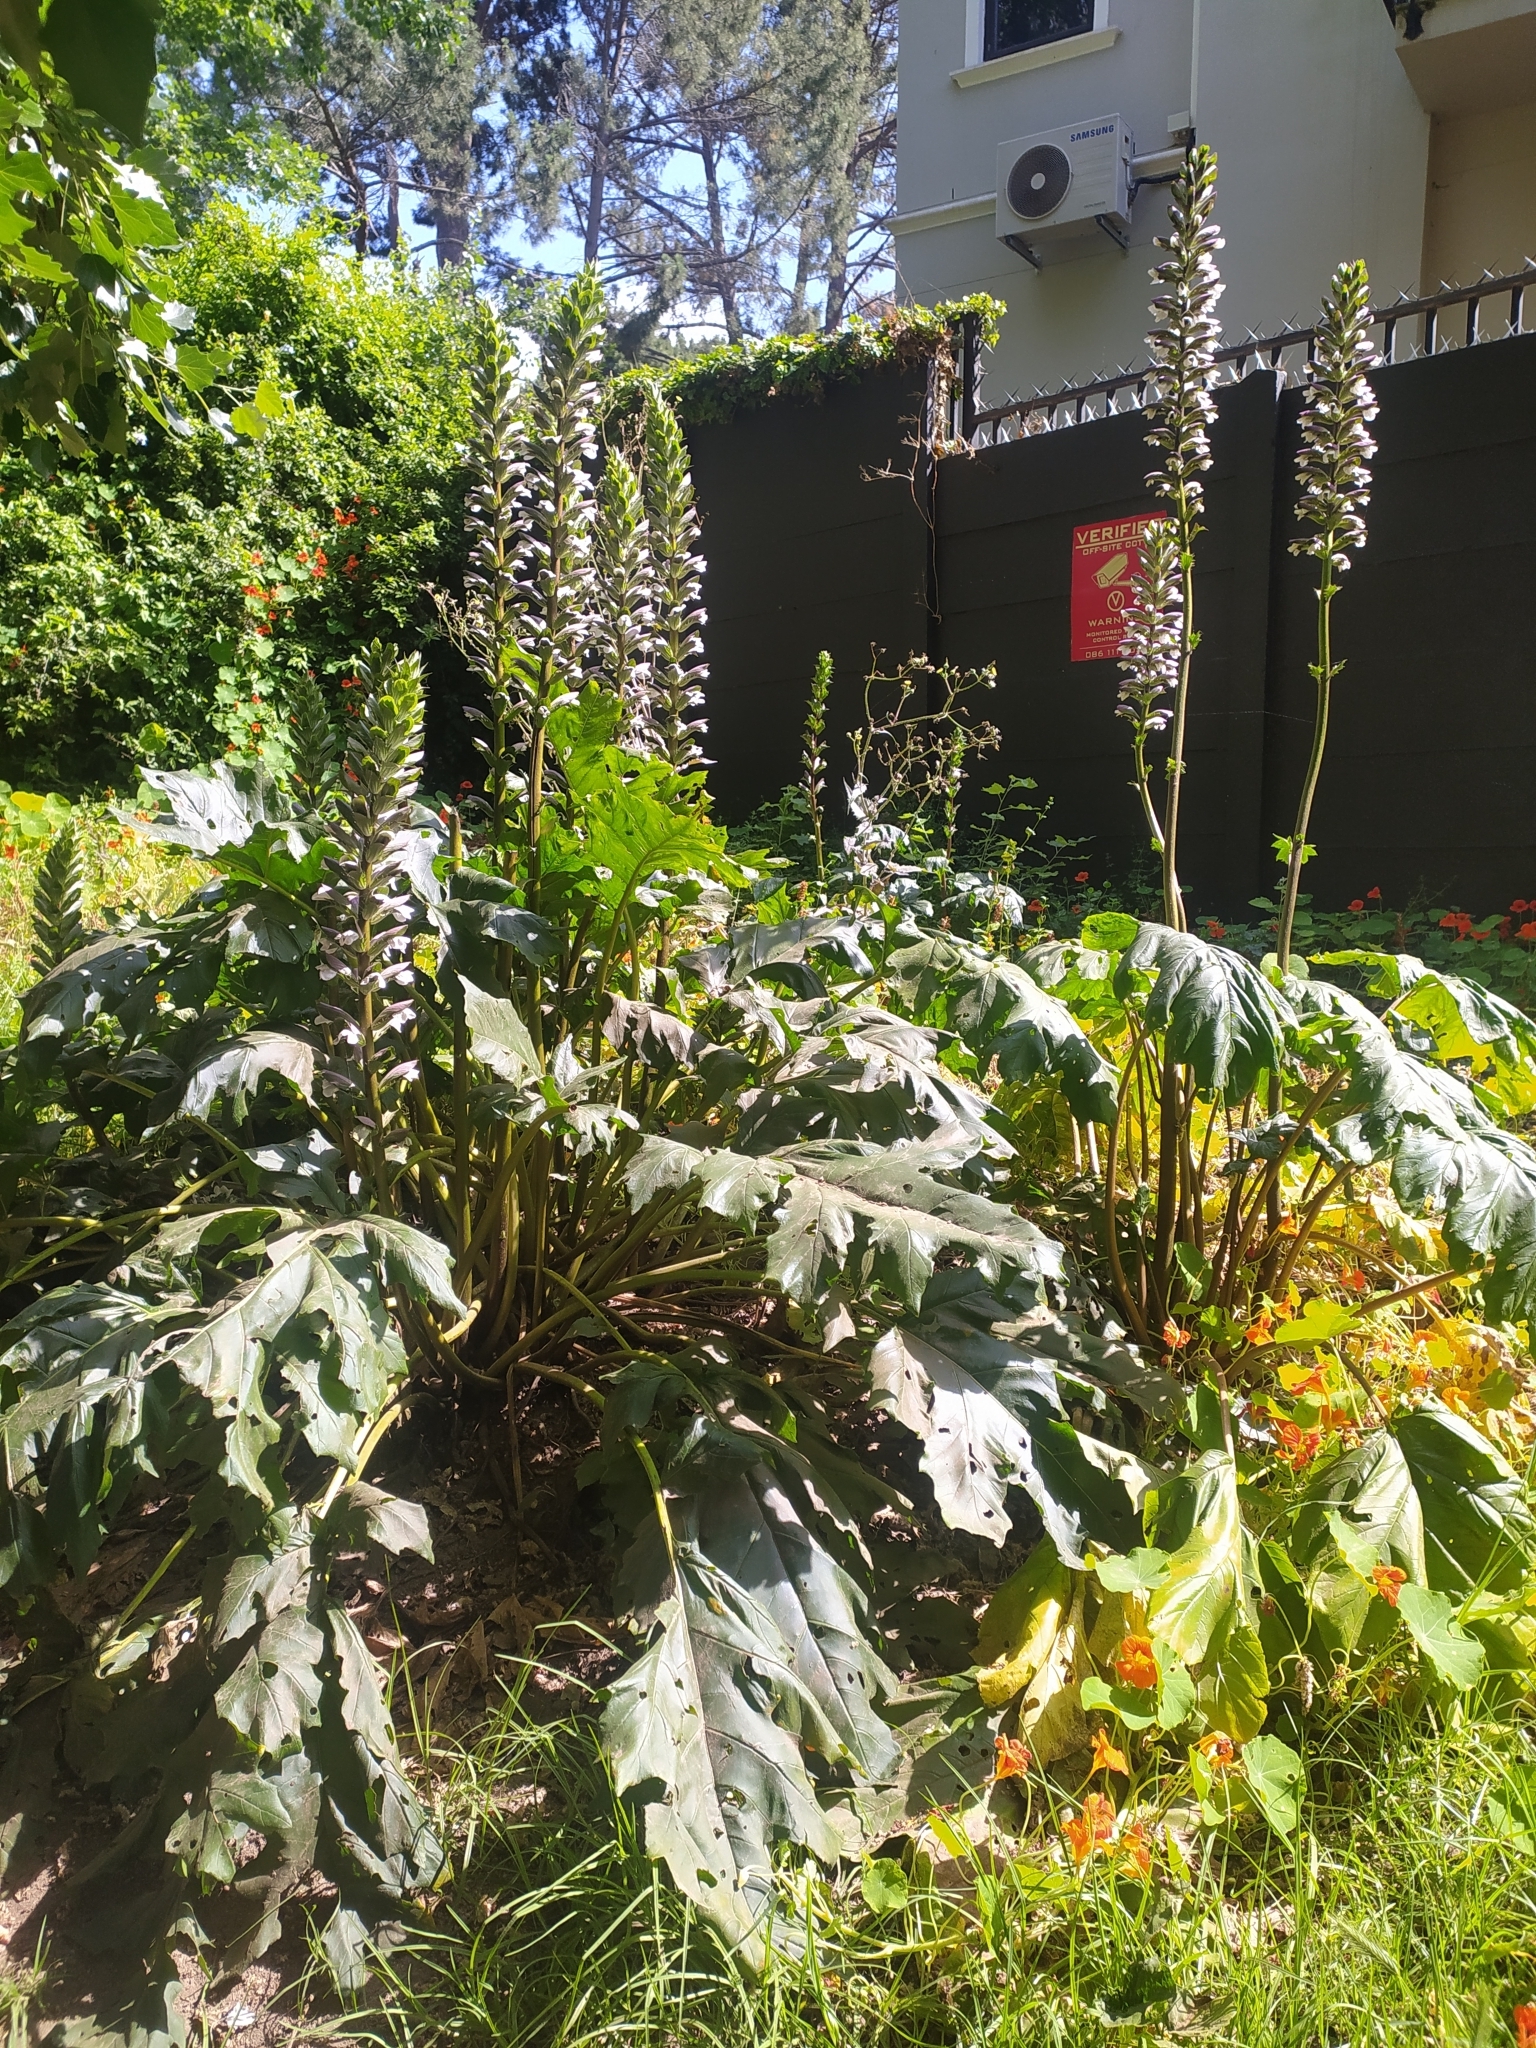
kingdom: Plantae
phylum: Tracheophyta
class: Magnoliopsida
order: Lamiales
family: Acanthaceae
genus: Acanthus
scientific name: Acanthus mollis
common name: Bear's-breech
